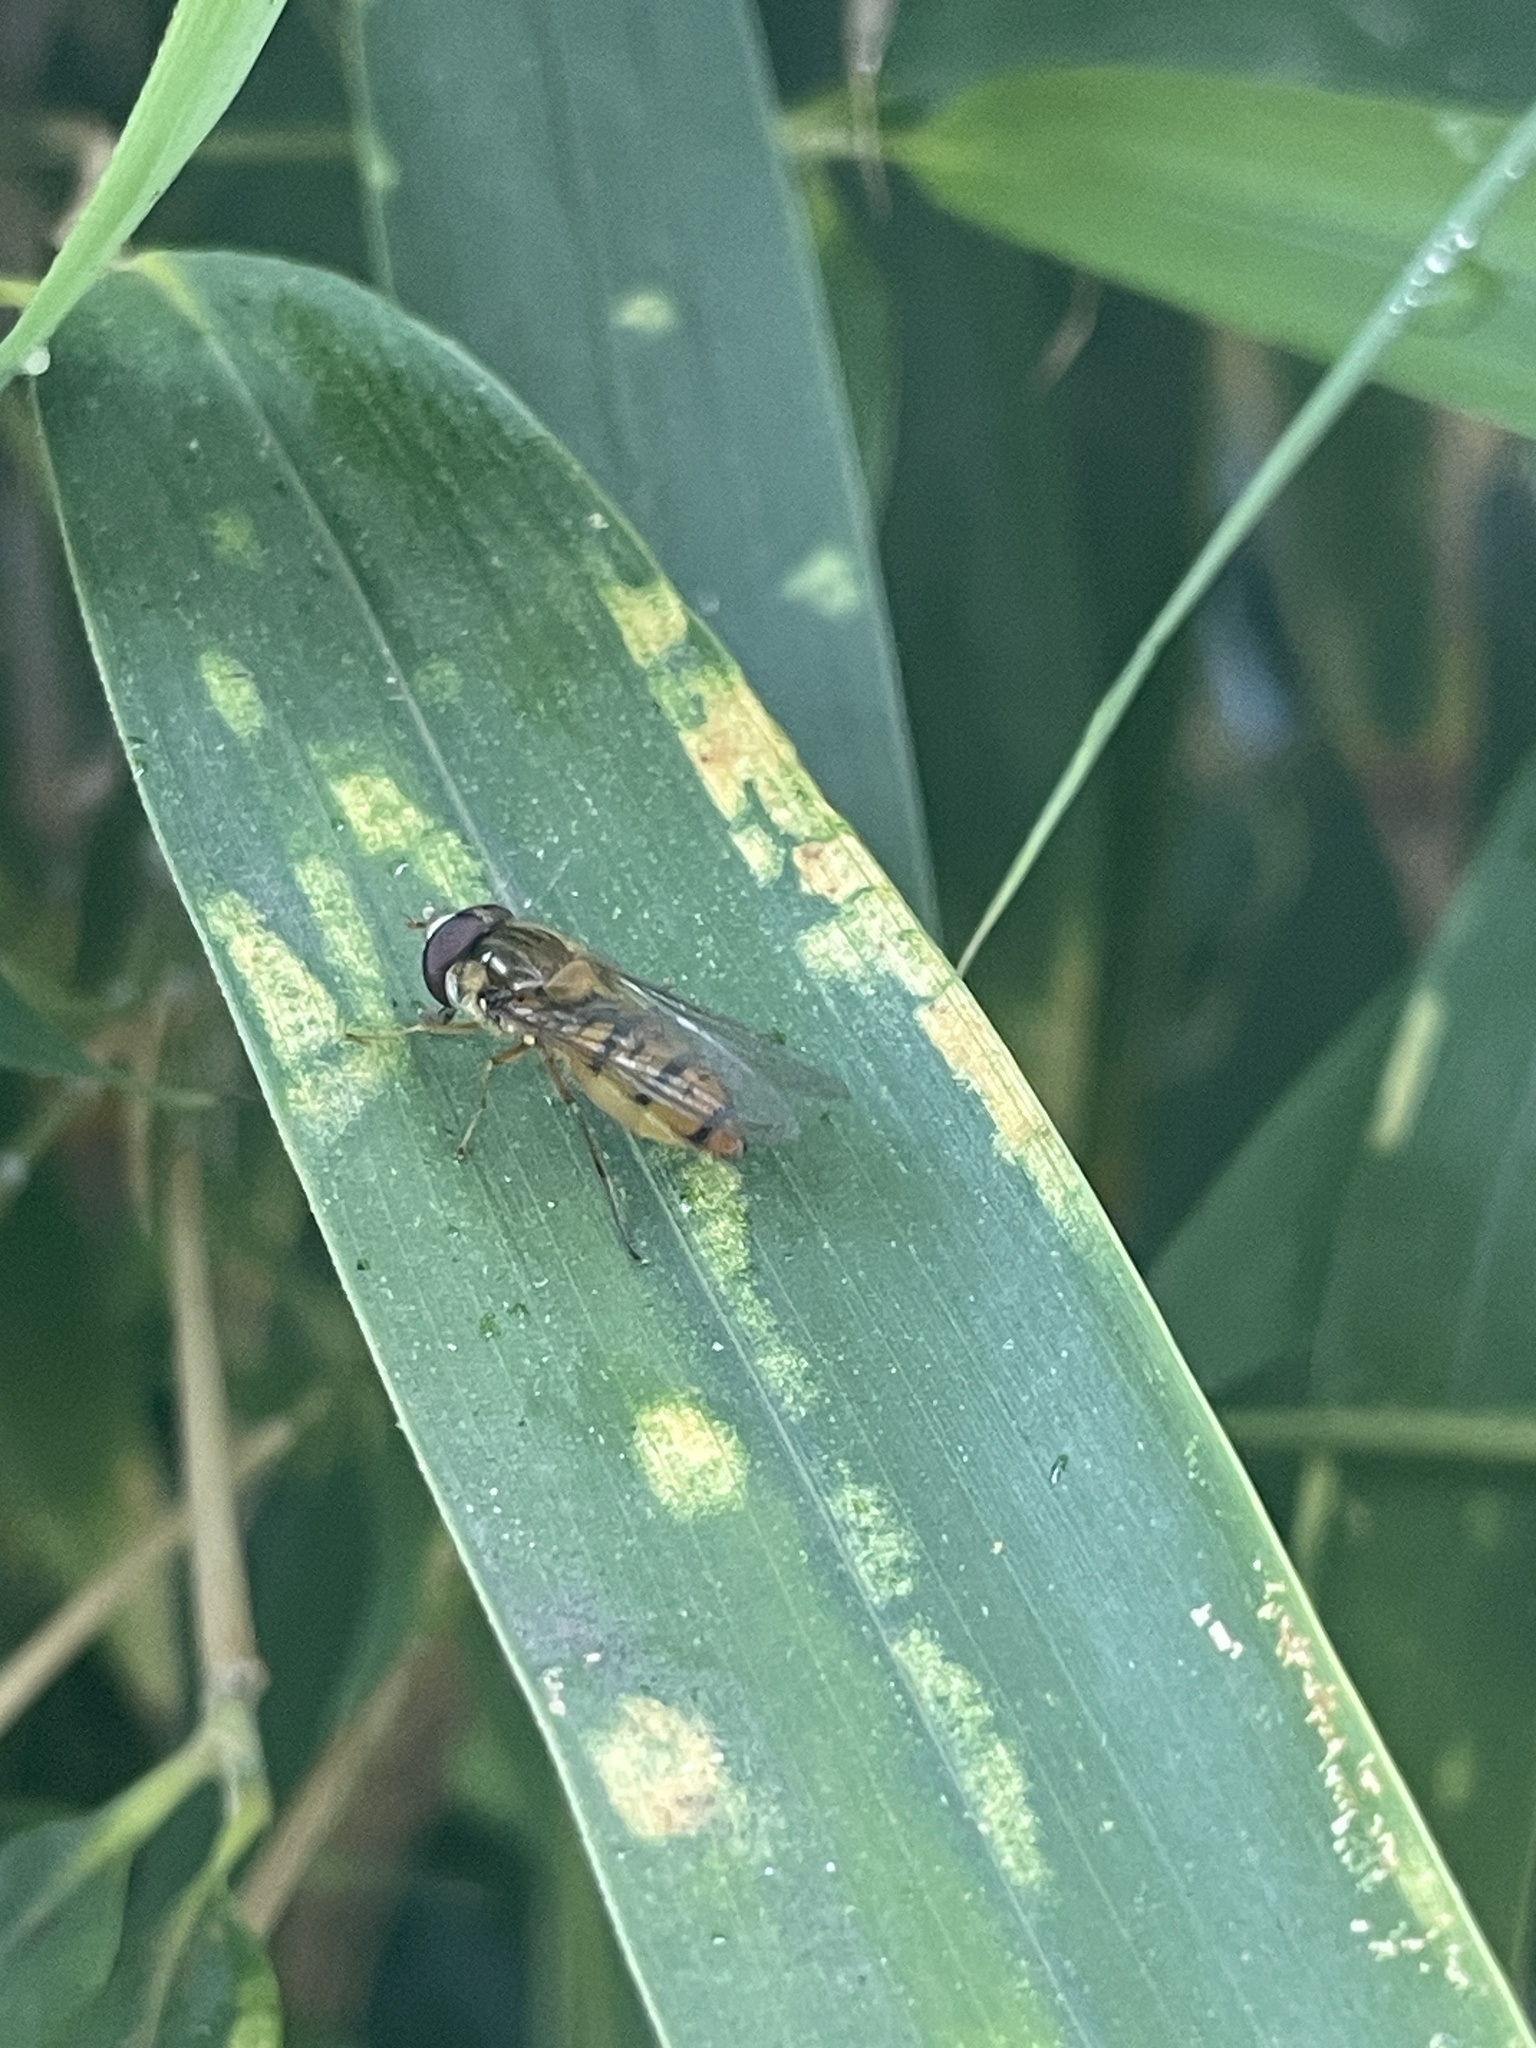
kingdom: Animalia
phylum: Arthropoda
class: Insecta
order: Diptera
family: Syrphidae
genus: Episyrphus
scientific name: Episyrphus balteatus
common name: Marmalade hoverfly
